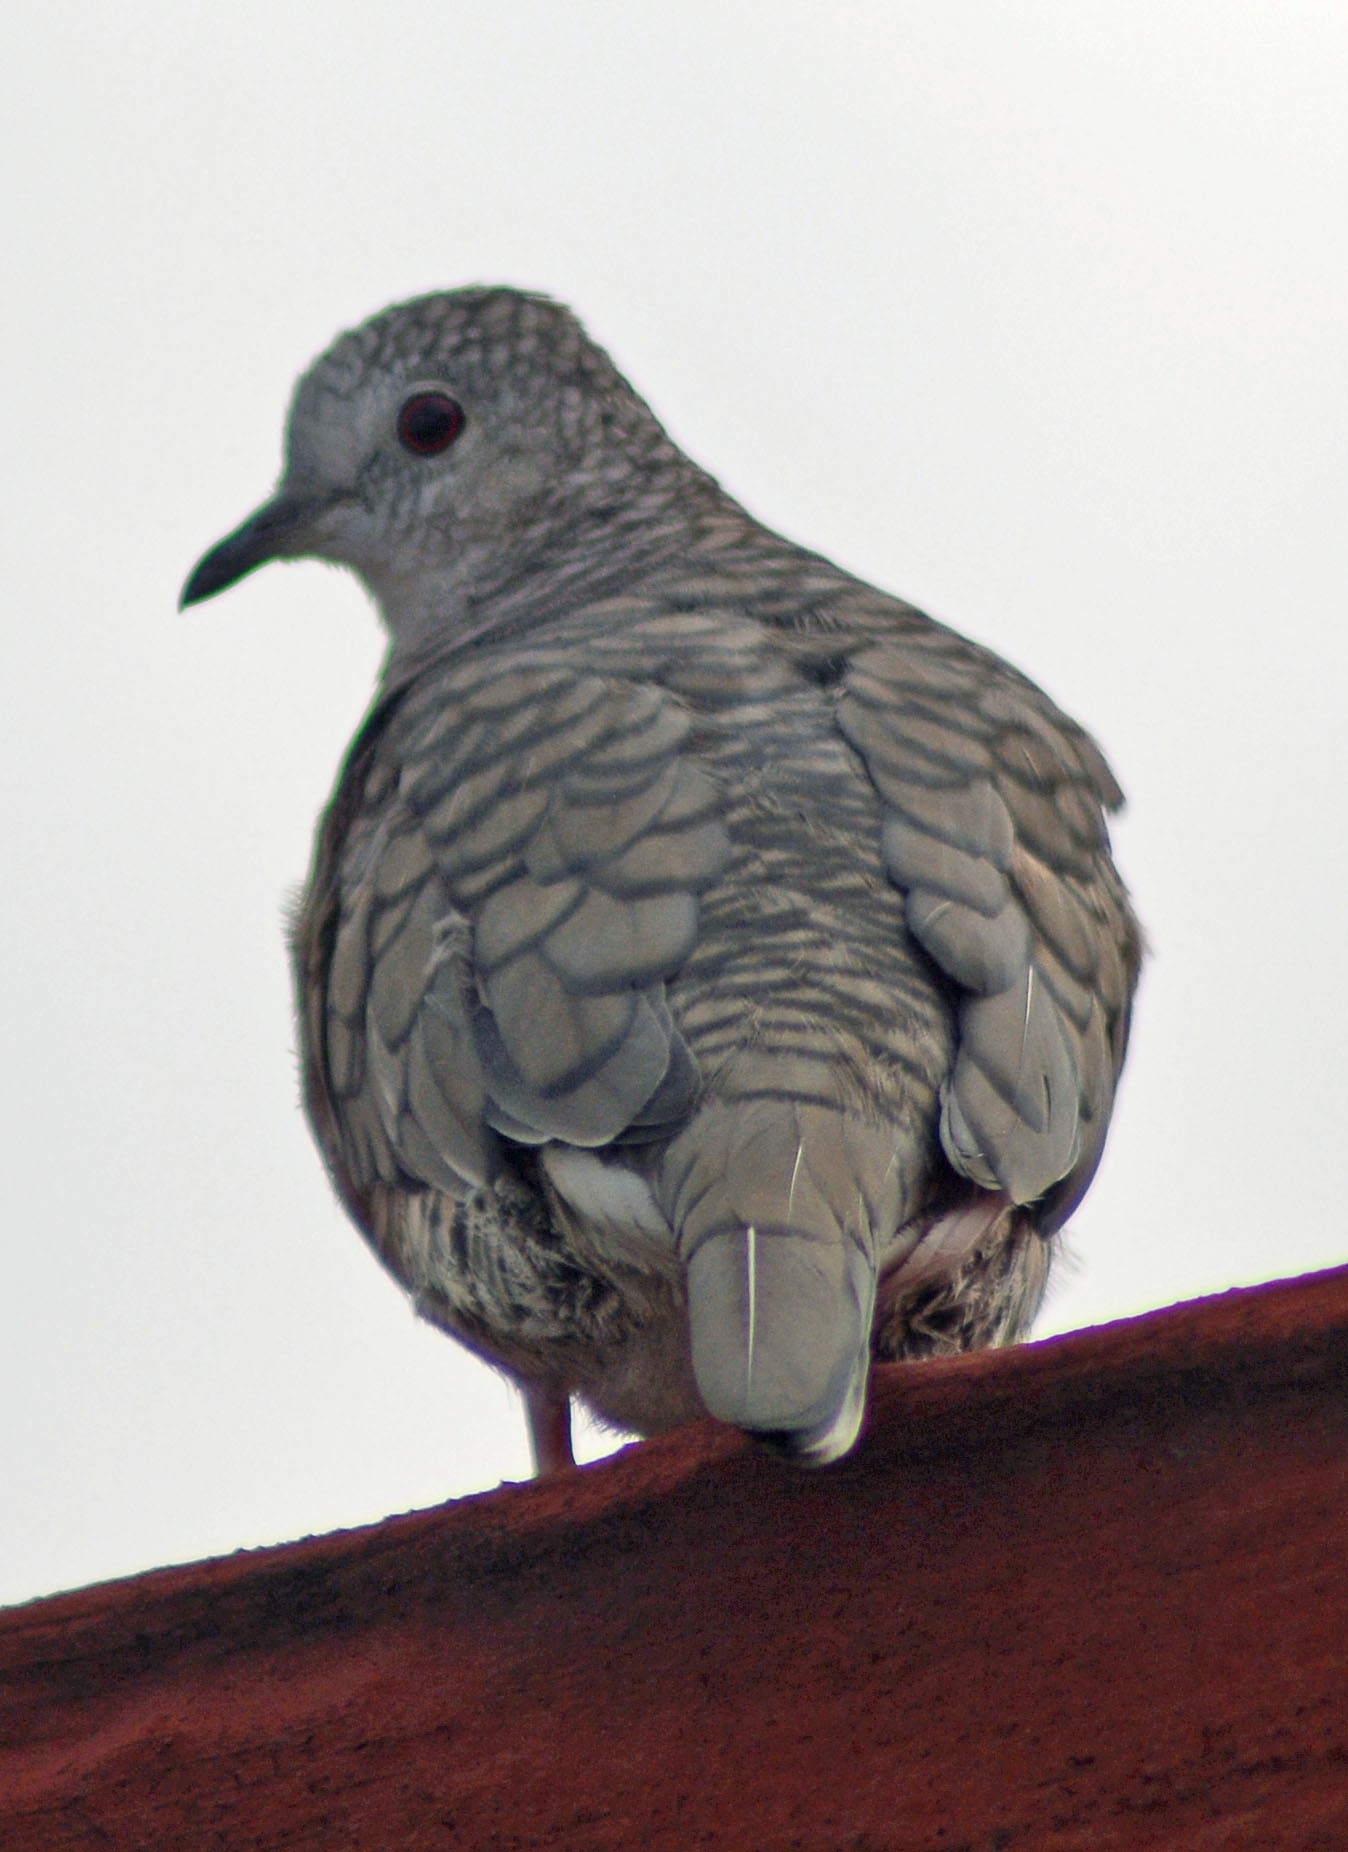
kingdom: Animalia
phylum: Chordata
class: Aves
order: Columbiformes
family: Columbidae
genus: Columbina
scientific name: Columbina inca
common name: Inca dove
